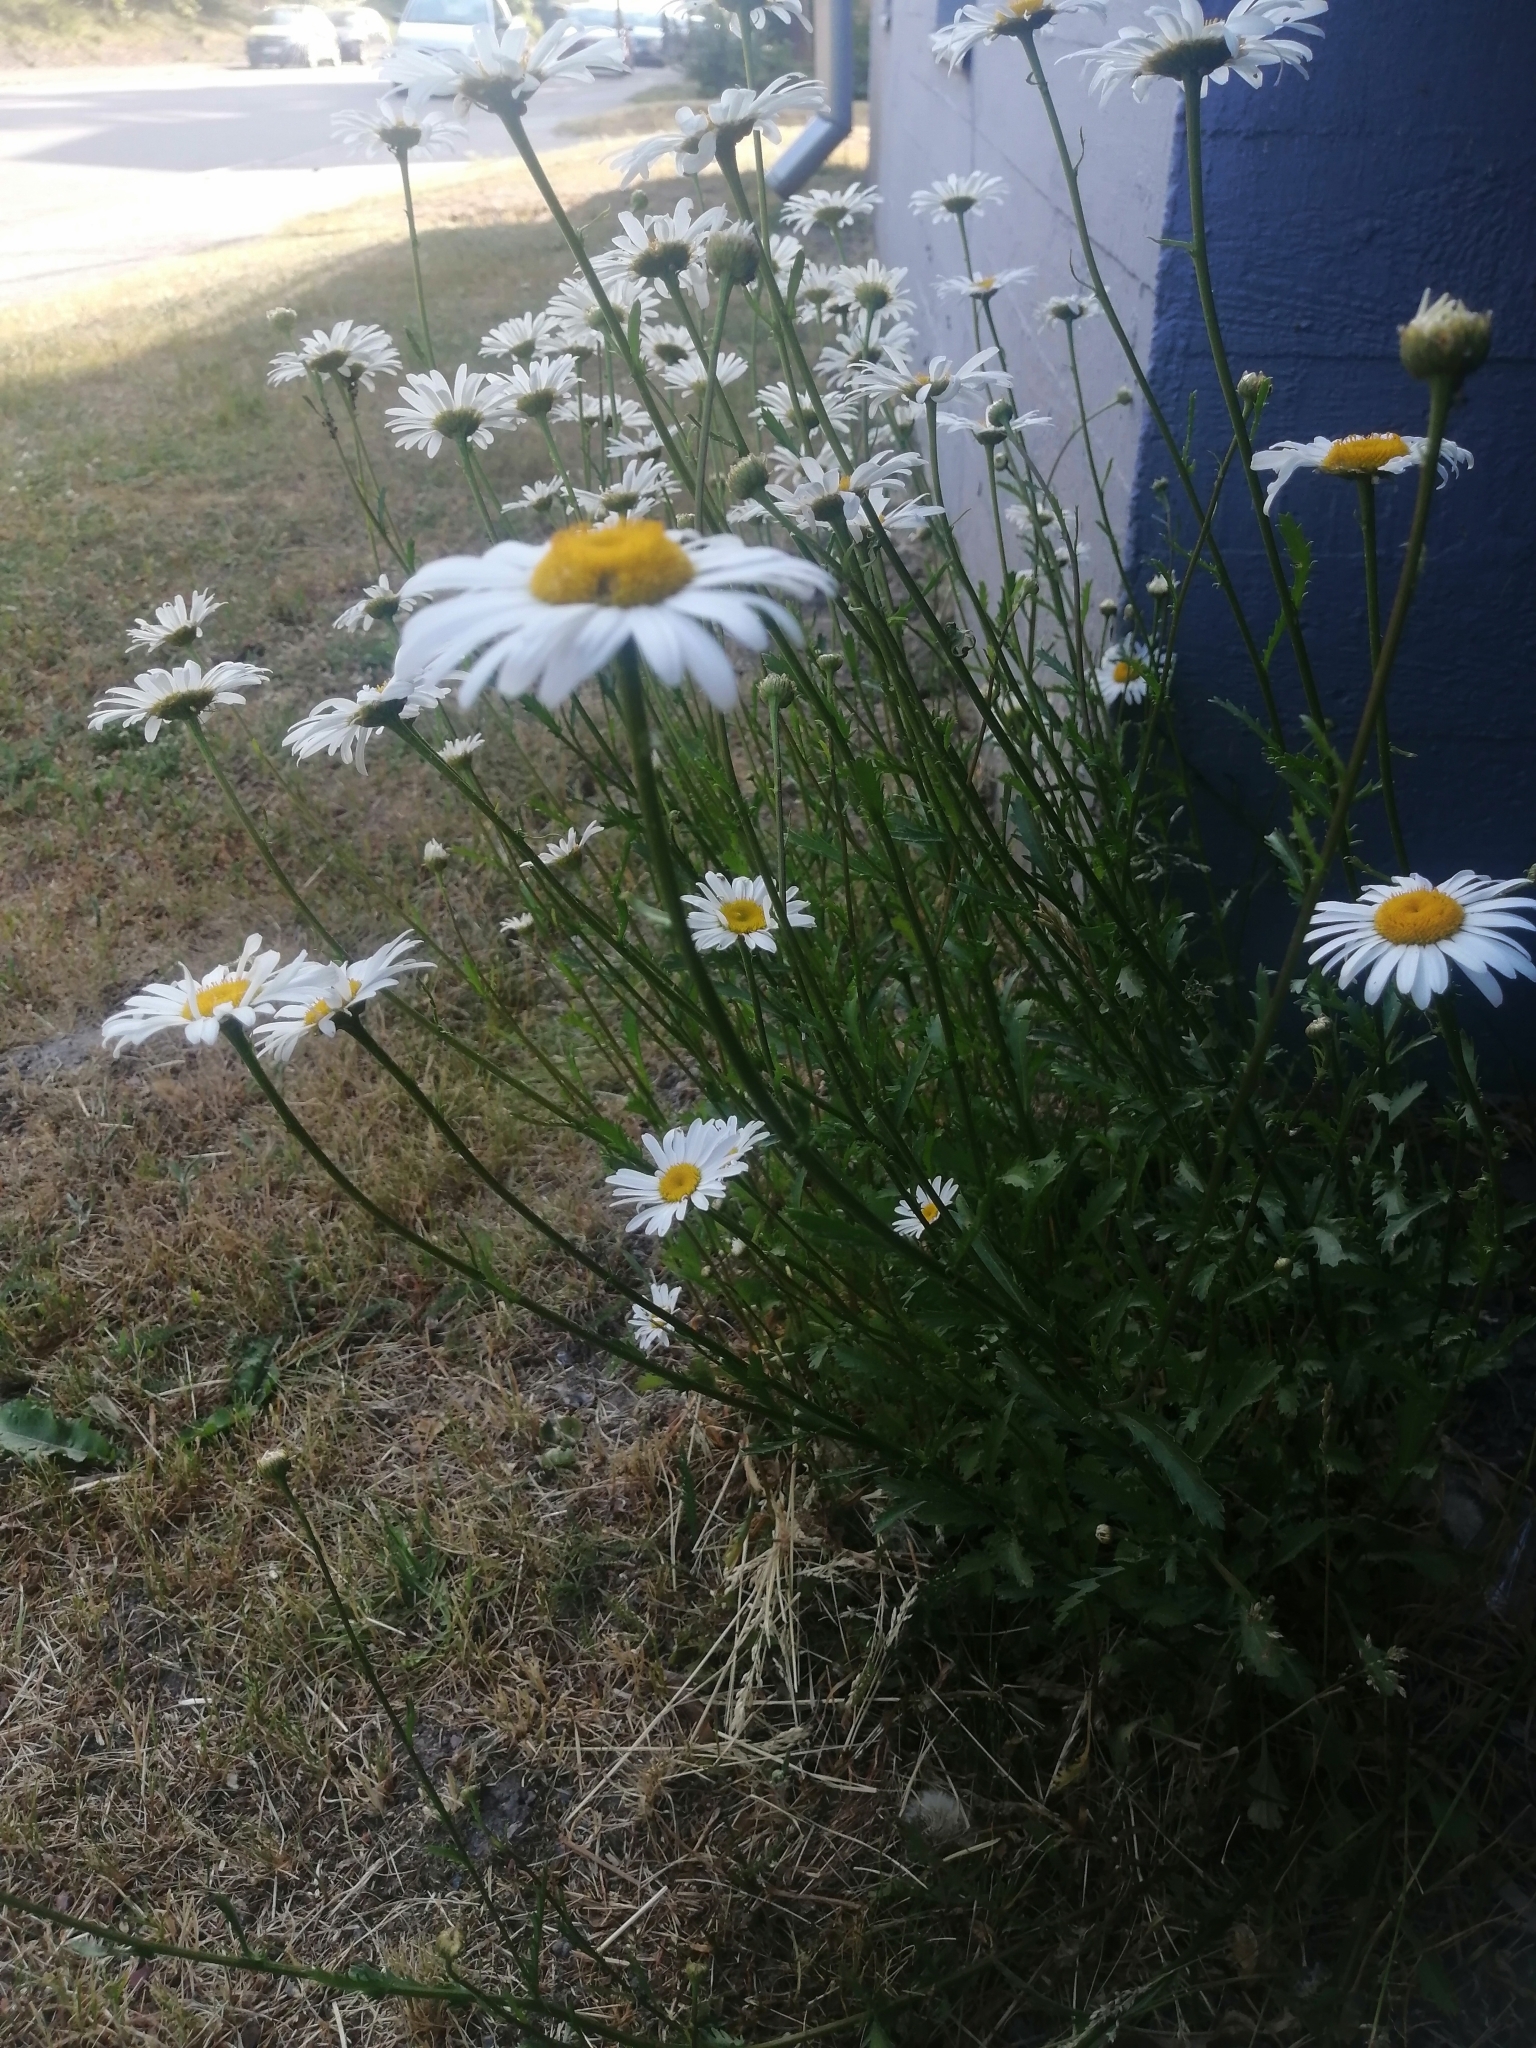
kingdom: Plantae
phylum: Tracheophyta
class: Magnoliopsida
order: Asterales
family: Asteraceae
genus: Leucanthemum
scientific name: Leucanthemum vulgare
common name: Oxeye daisy
